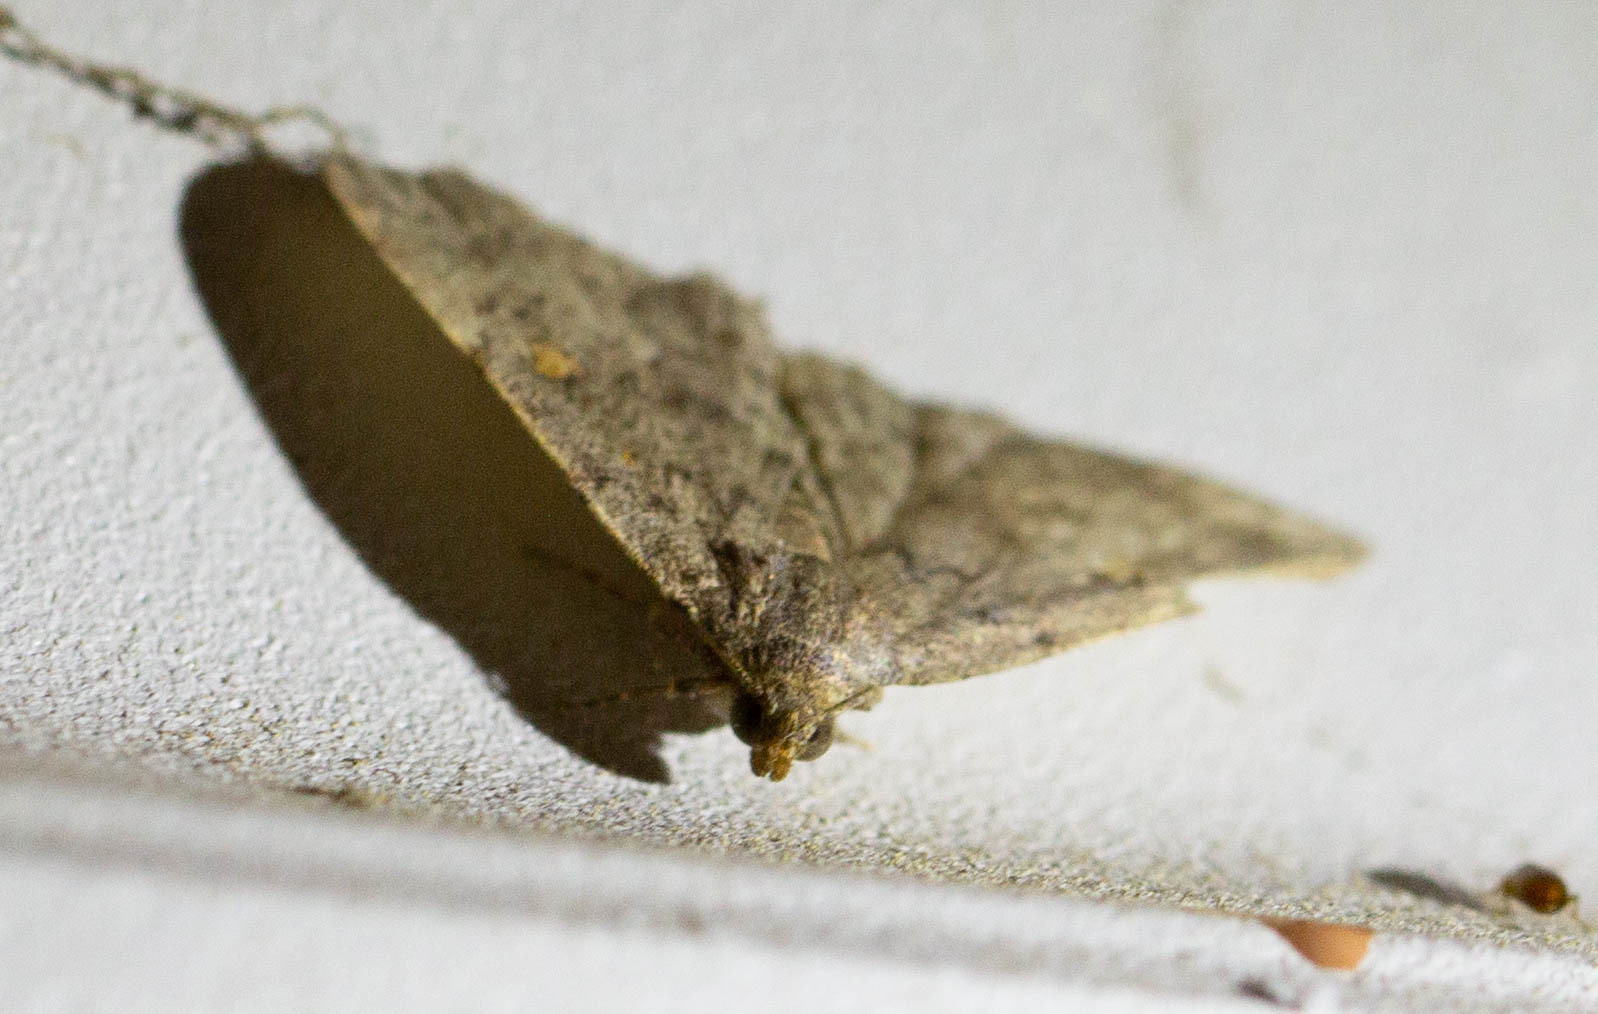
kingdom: Animalia
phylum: Arthropoda
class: Insecta
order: Lepidoptera
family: Erebidae
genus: Idia
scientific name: Idia aemula
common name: Common idia moth
